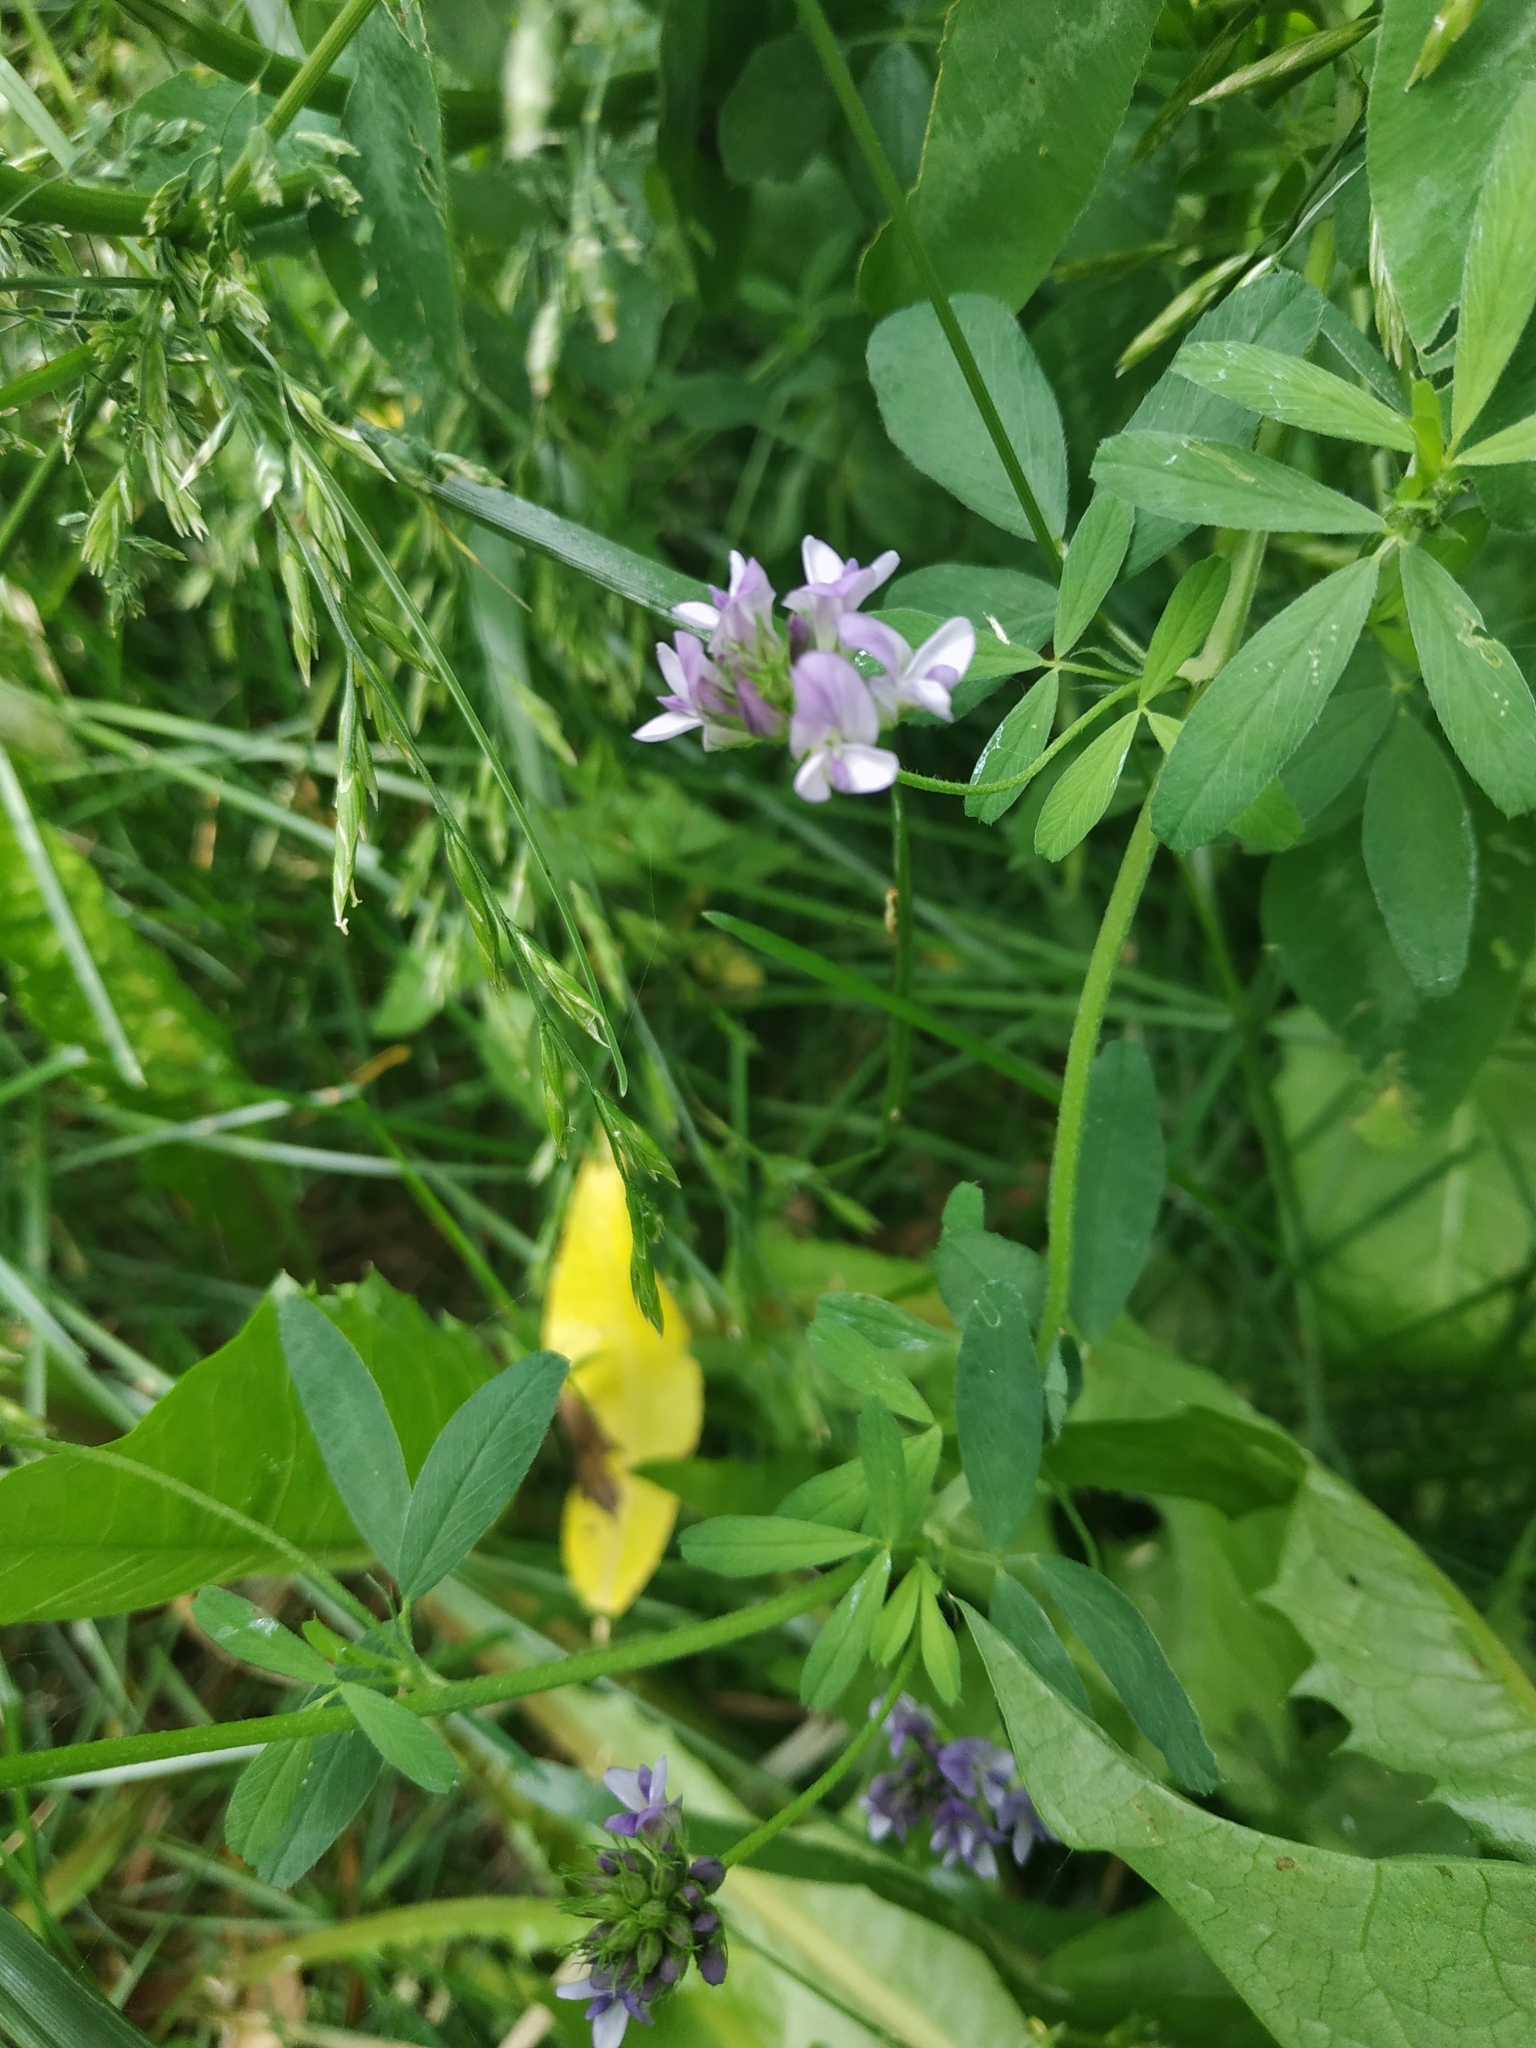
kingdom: Plantae
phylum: Tracheophyta
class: Magnoliopsida
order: Fabales
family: Fabaceae
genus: Medicago
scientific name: Medicago varia
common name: Sand lucerne
